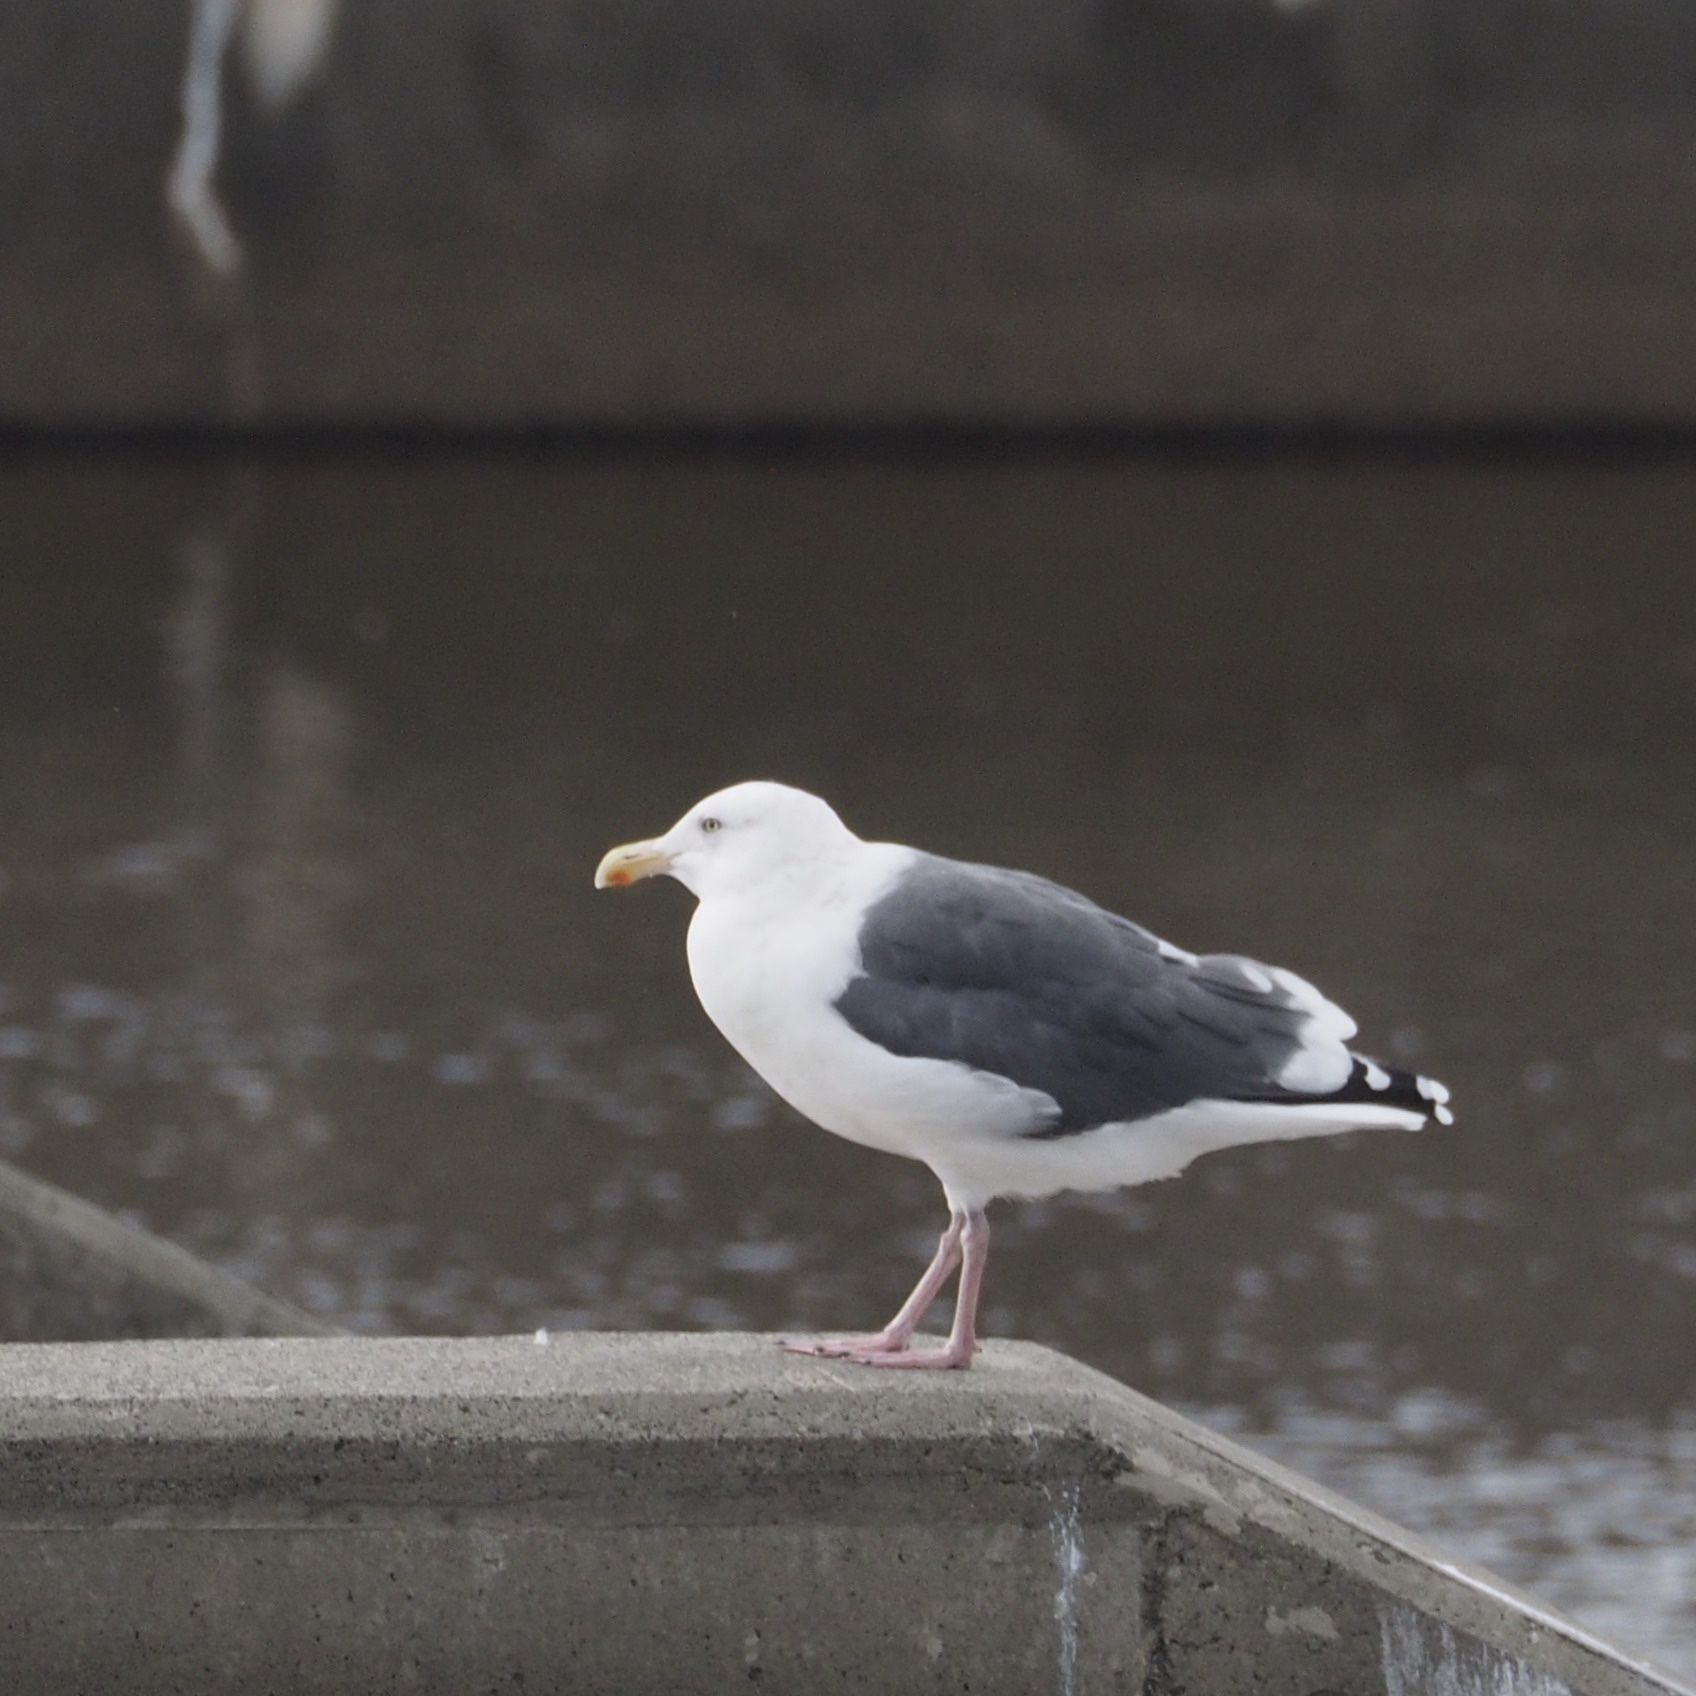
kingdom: Animalia
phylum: Chordata
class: Aves
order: Charadriiformes
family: Laridae
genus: Larus
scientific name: Larus schistisagus
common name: Slaty-backed gull
